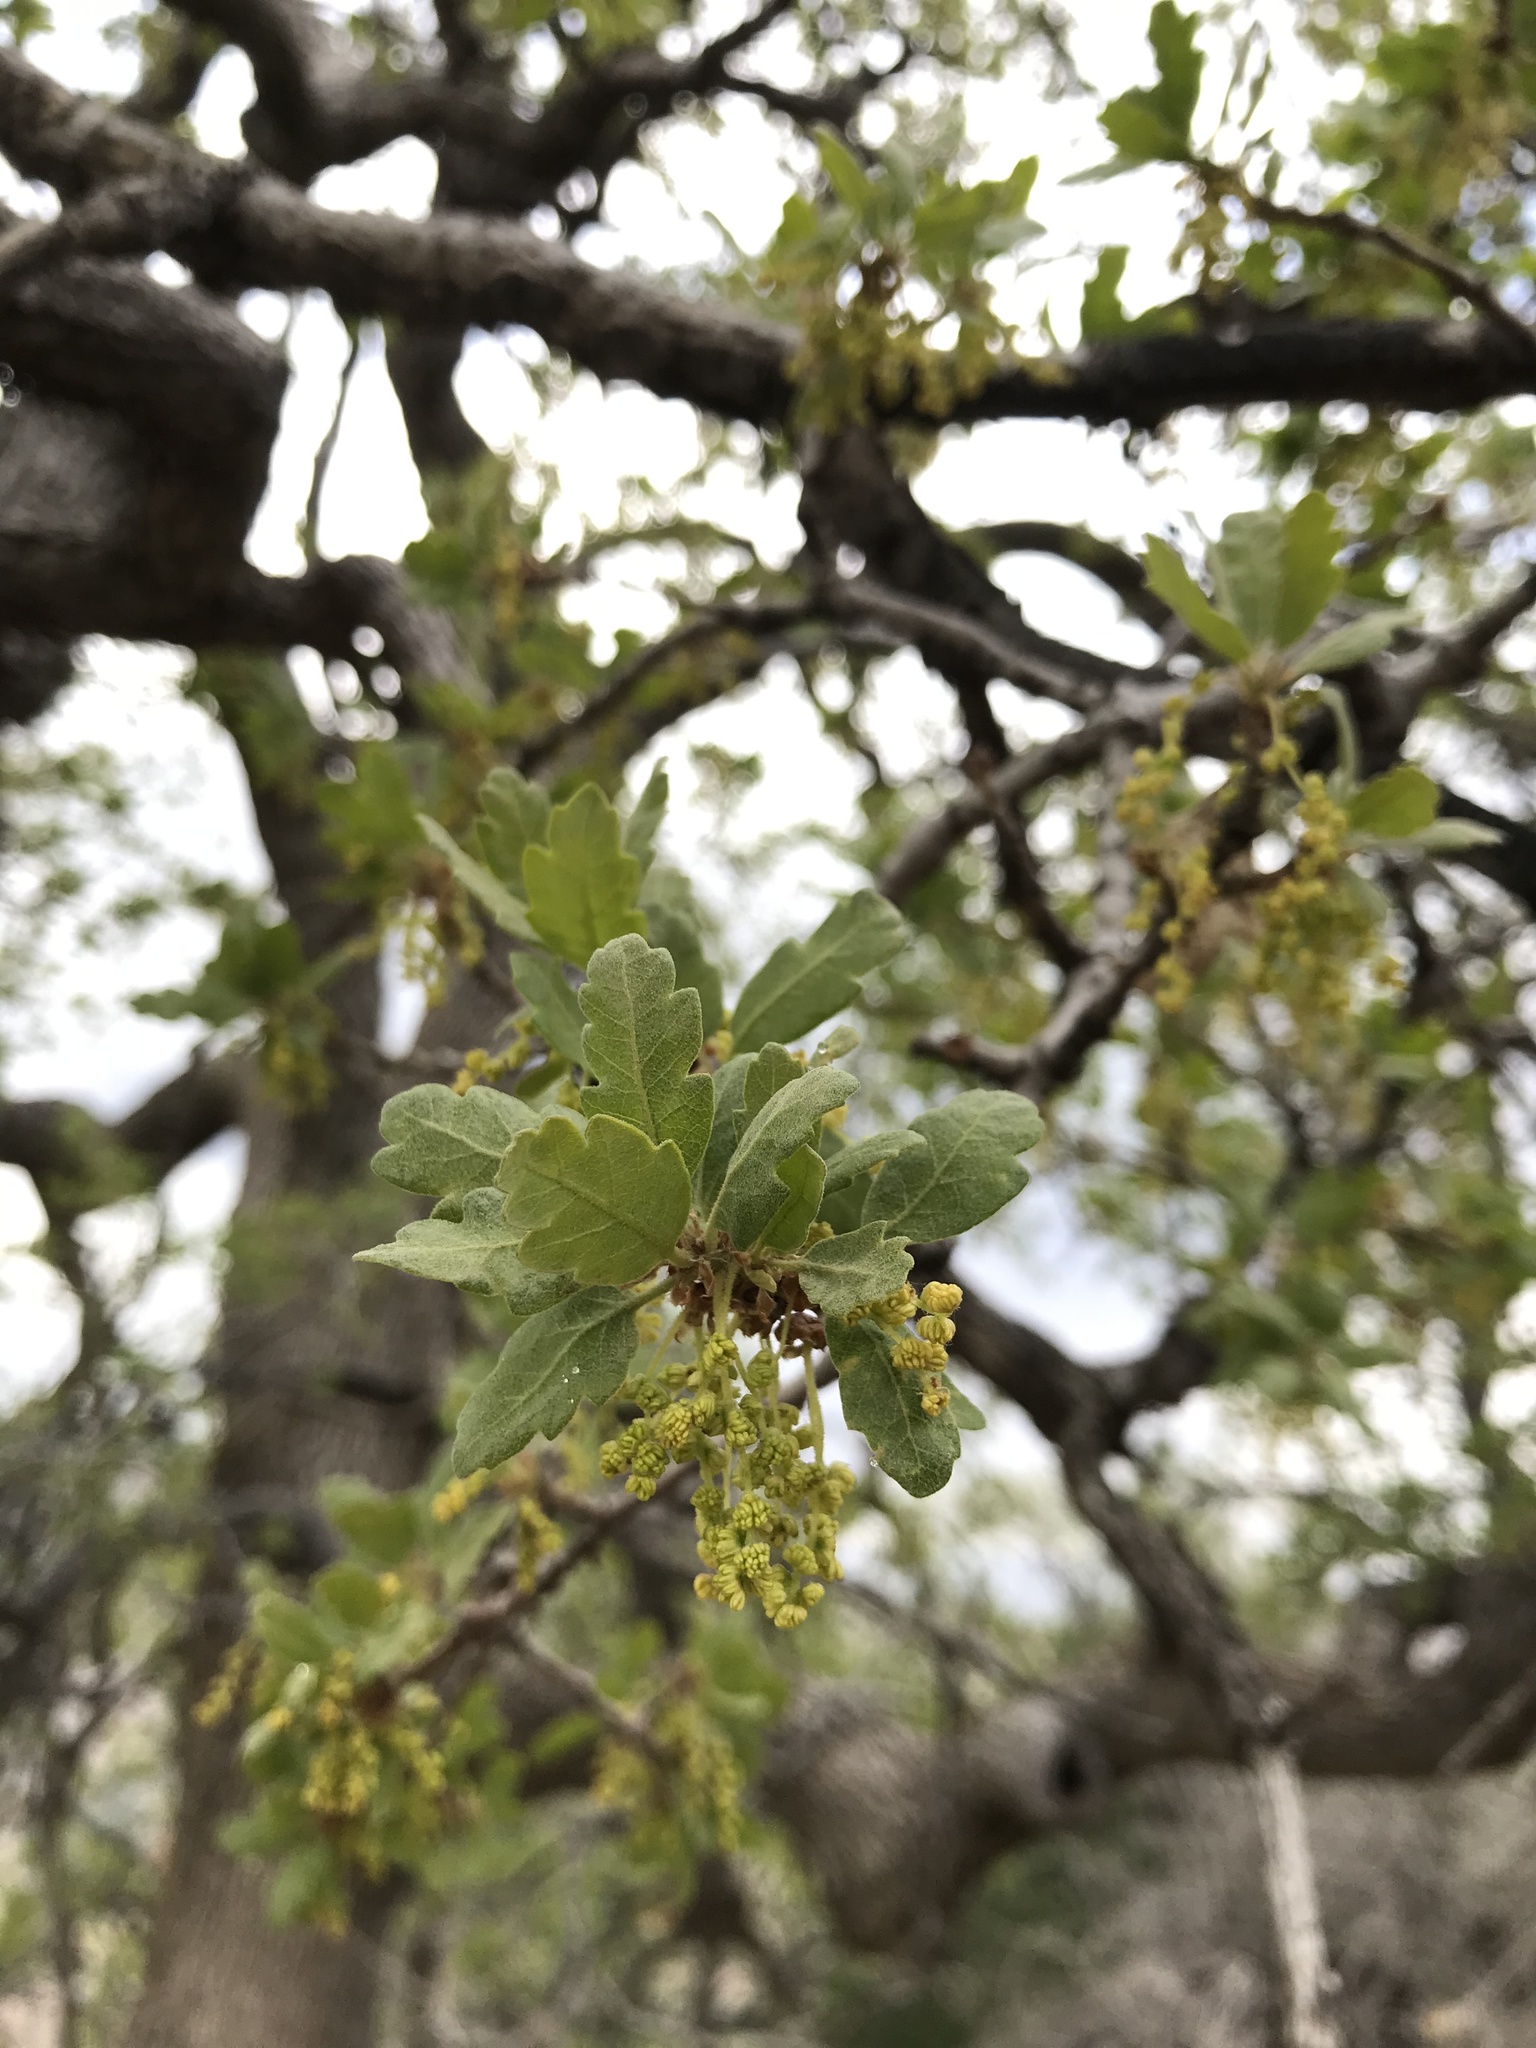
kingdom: Plantae
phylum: Tracheophyta
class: Magnoliopsida
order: Fagales
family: Fagaceae
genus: Quercus
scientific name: Quercus douglasii
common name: Blue oak
